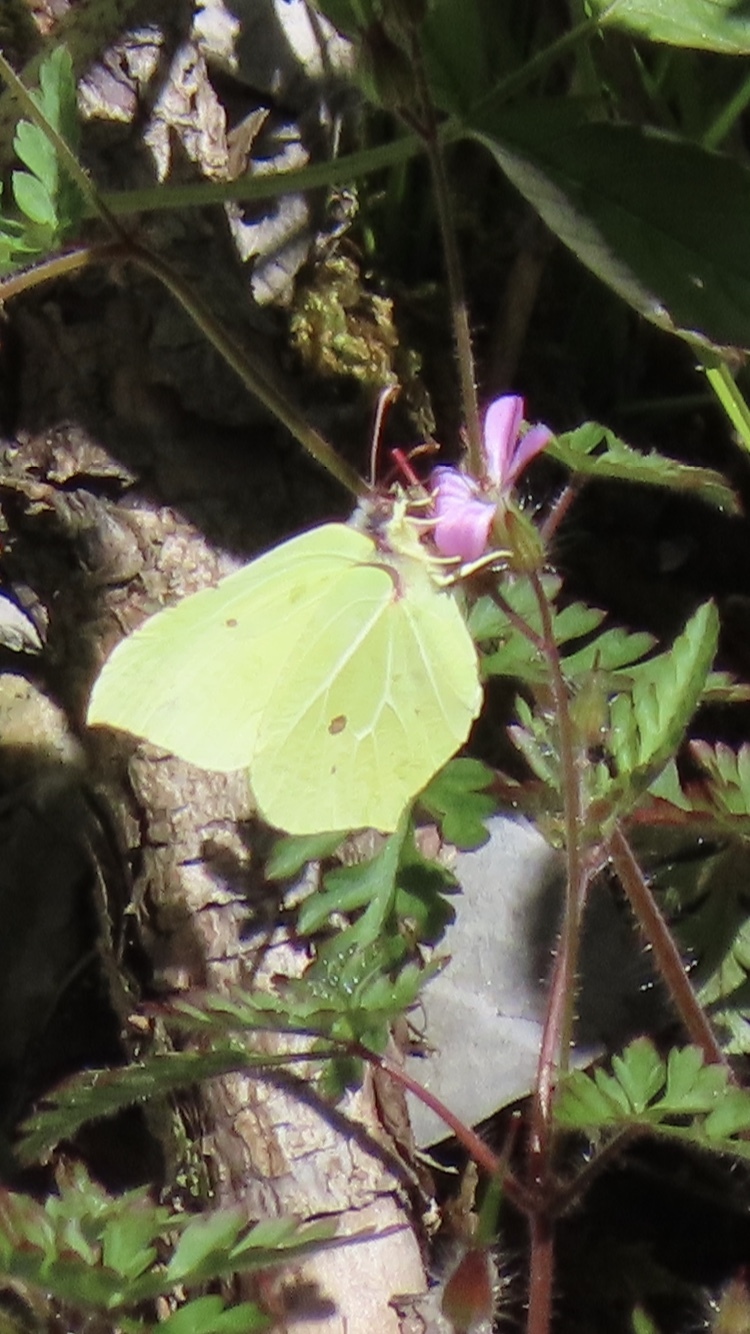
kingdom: Animalia
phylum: Arthropoda
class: Insecta
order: Lepidoptera
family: Pieridae
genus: Gonepteryx
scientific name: Gonepteryx rhamni
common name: Brimstone
